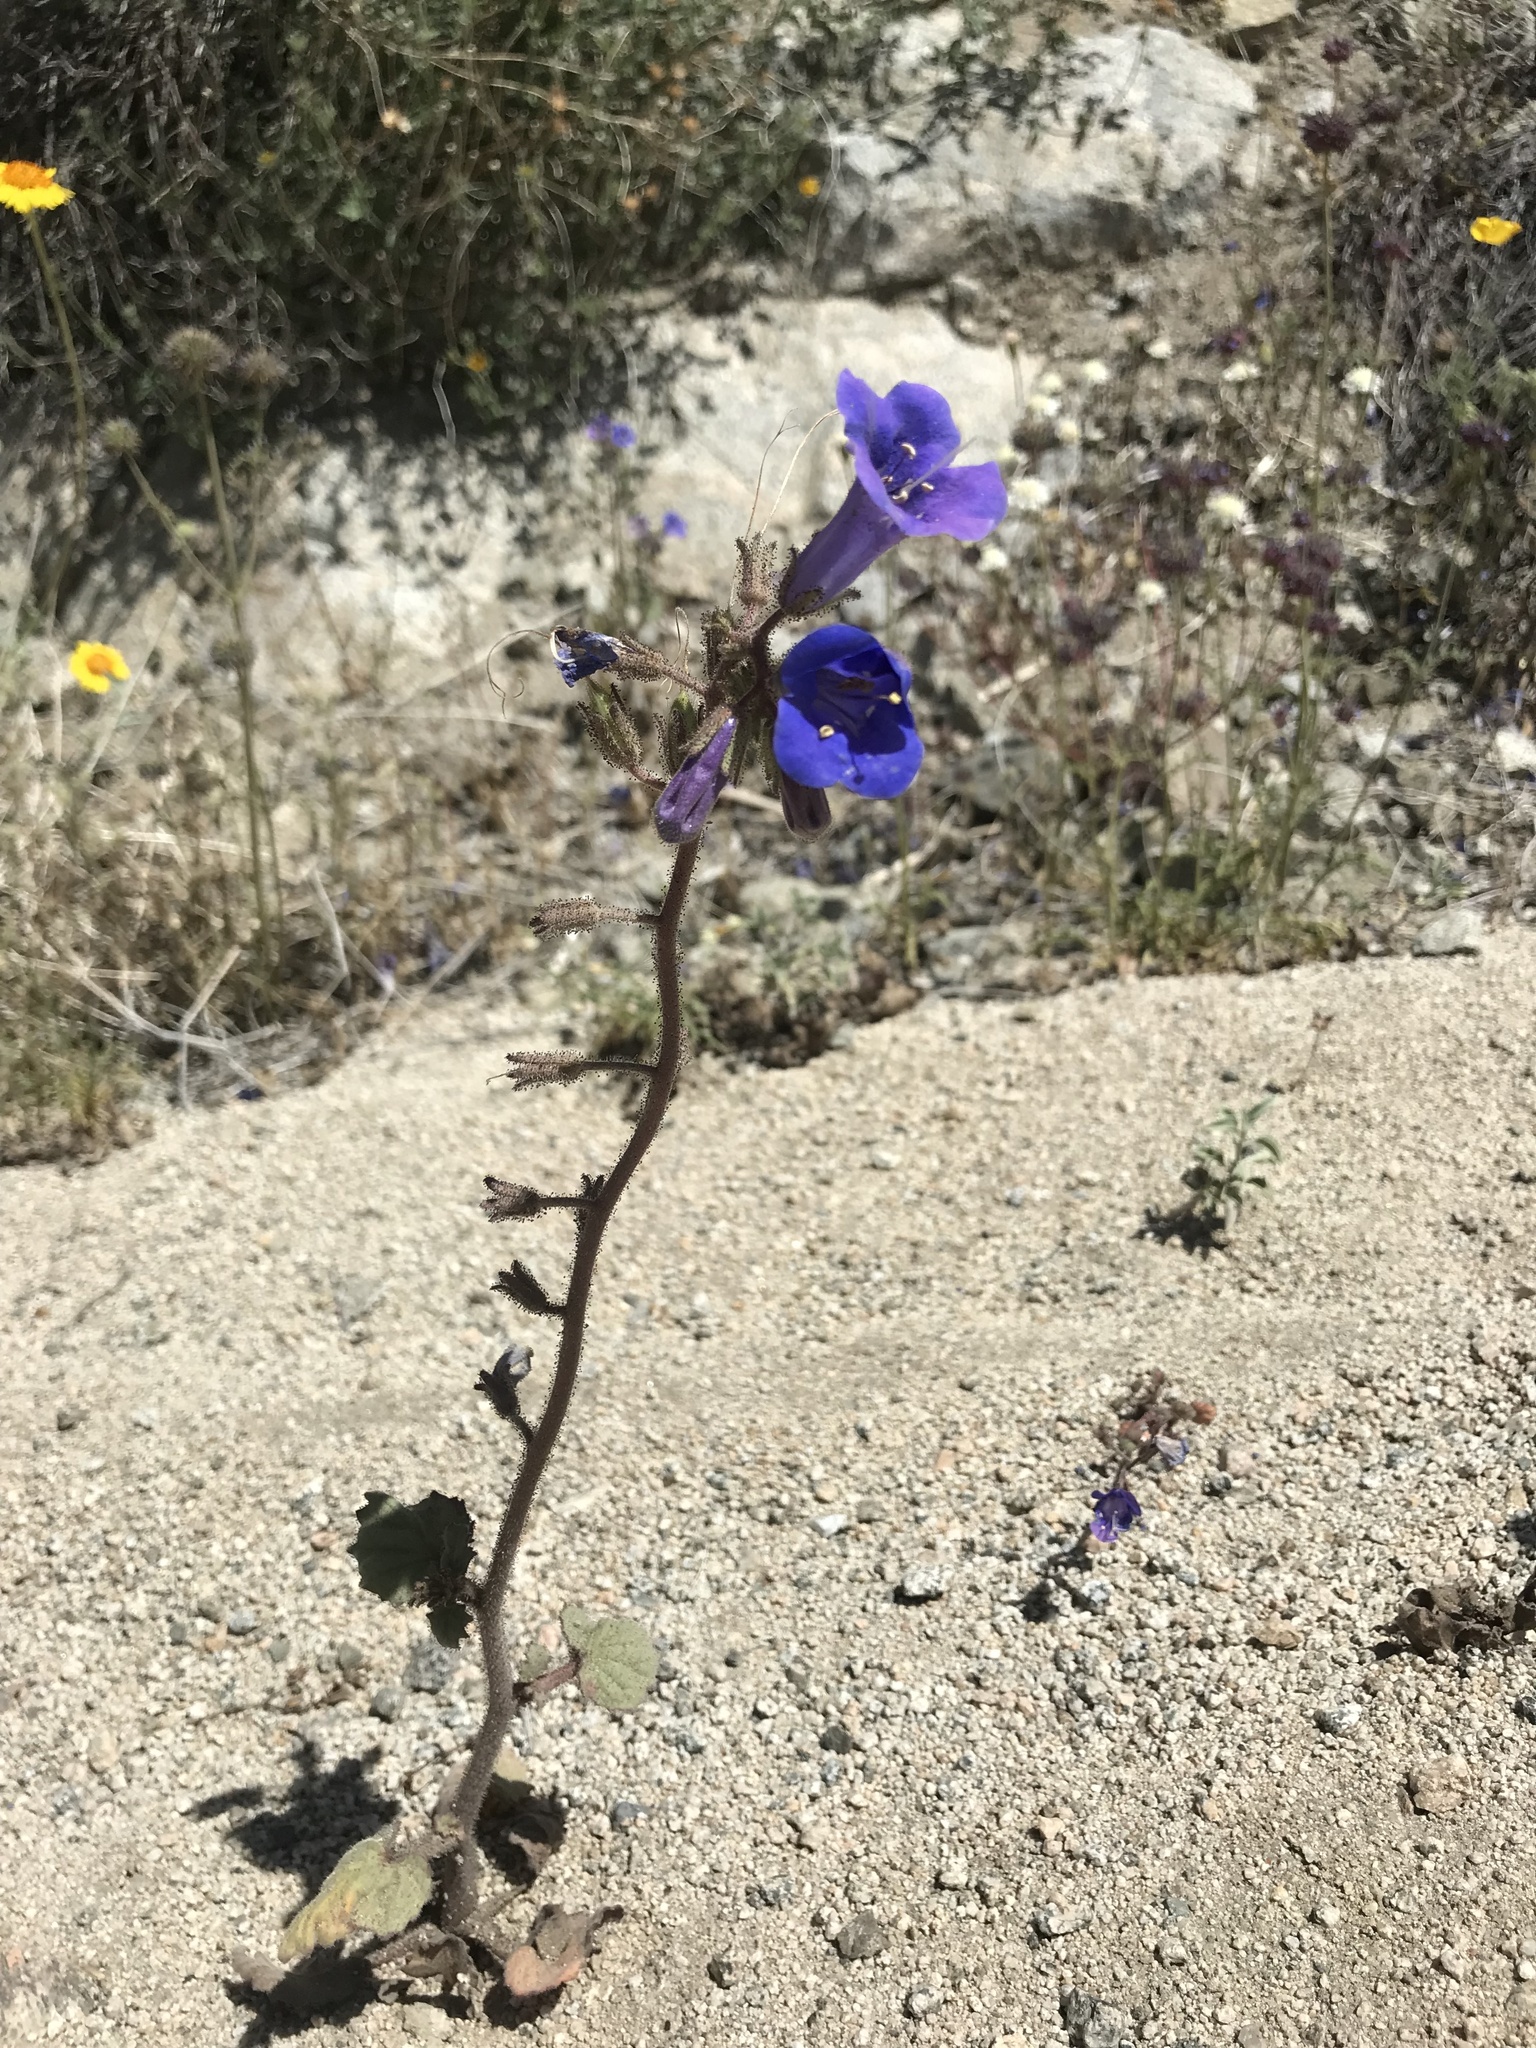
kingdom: Plantae
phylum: Tracheophyta
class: Magnoliopsida
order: Boraginales
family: Hydrophyllaceae
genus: Phacelia
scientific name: Phacelia campanularia
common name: California bluebell
